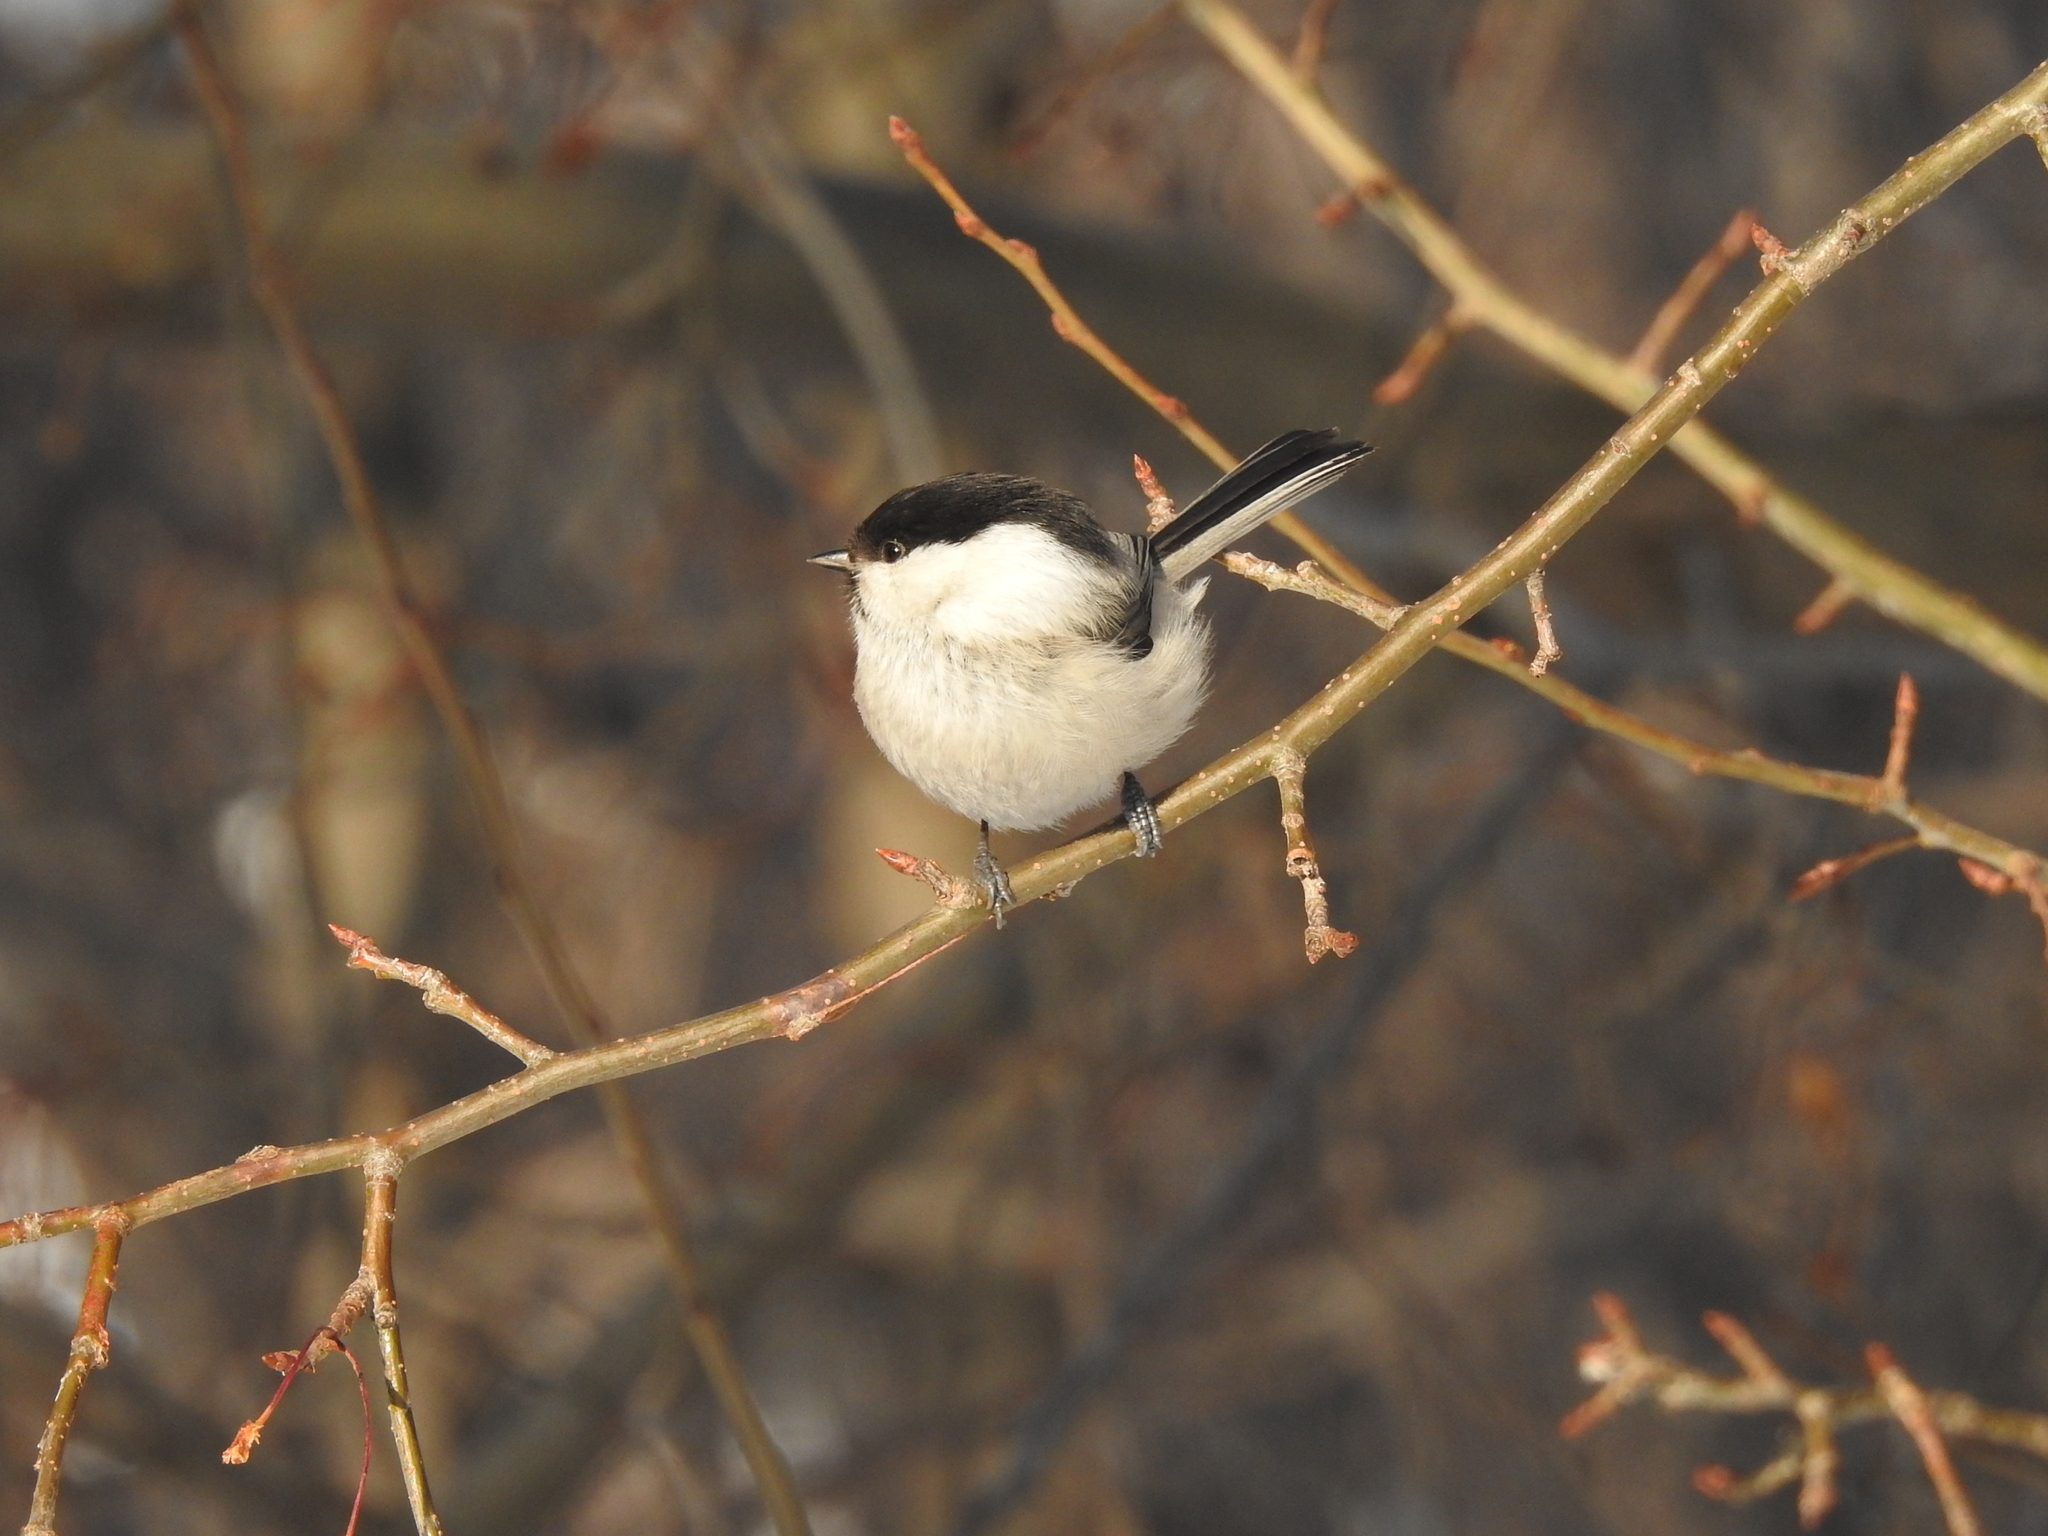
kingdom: Animalia
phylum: Chordata
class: Aves
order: Passeriformes
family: Paridae
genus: Poecile
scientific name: Poecile montanus
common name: Willow tit
